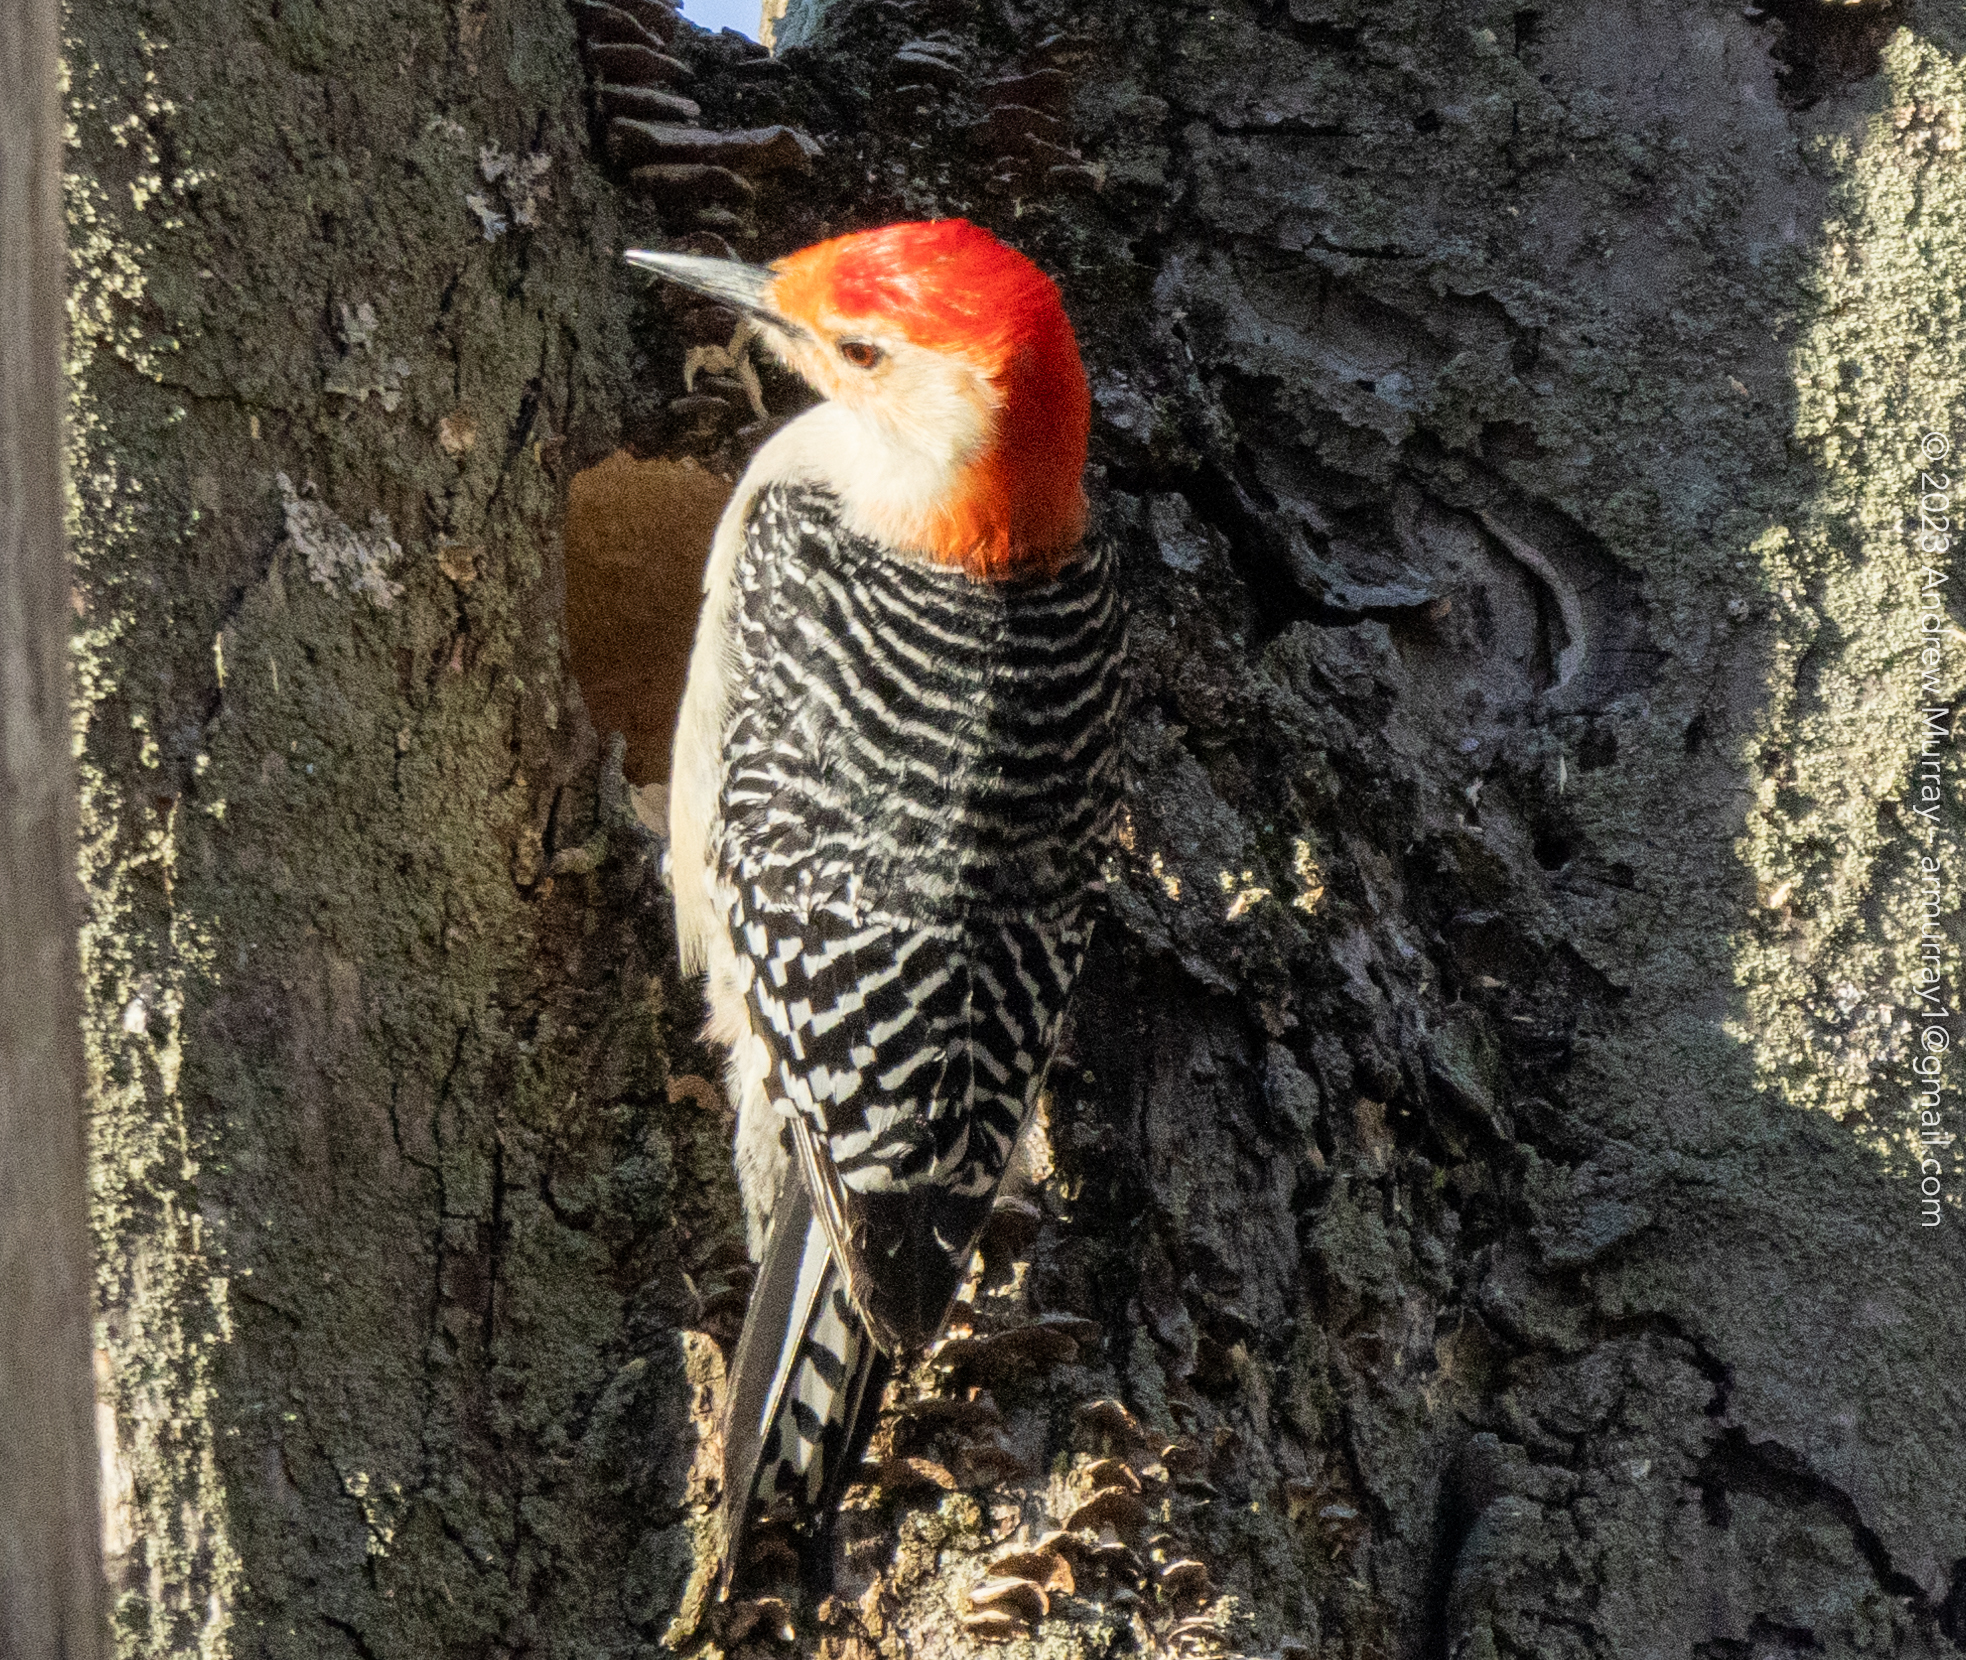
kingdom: Animalia
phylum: Chordata
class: Aves
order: Piciformes
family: Picidae
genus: Melanerpes
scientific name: Melanerpes carolinus
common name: Red-bellied woodpecker
